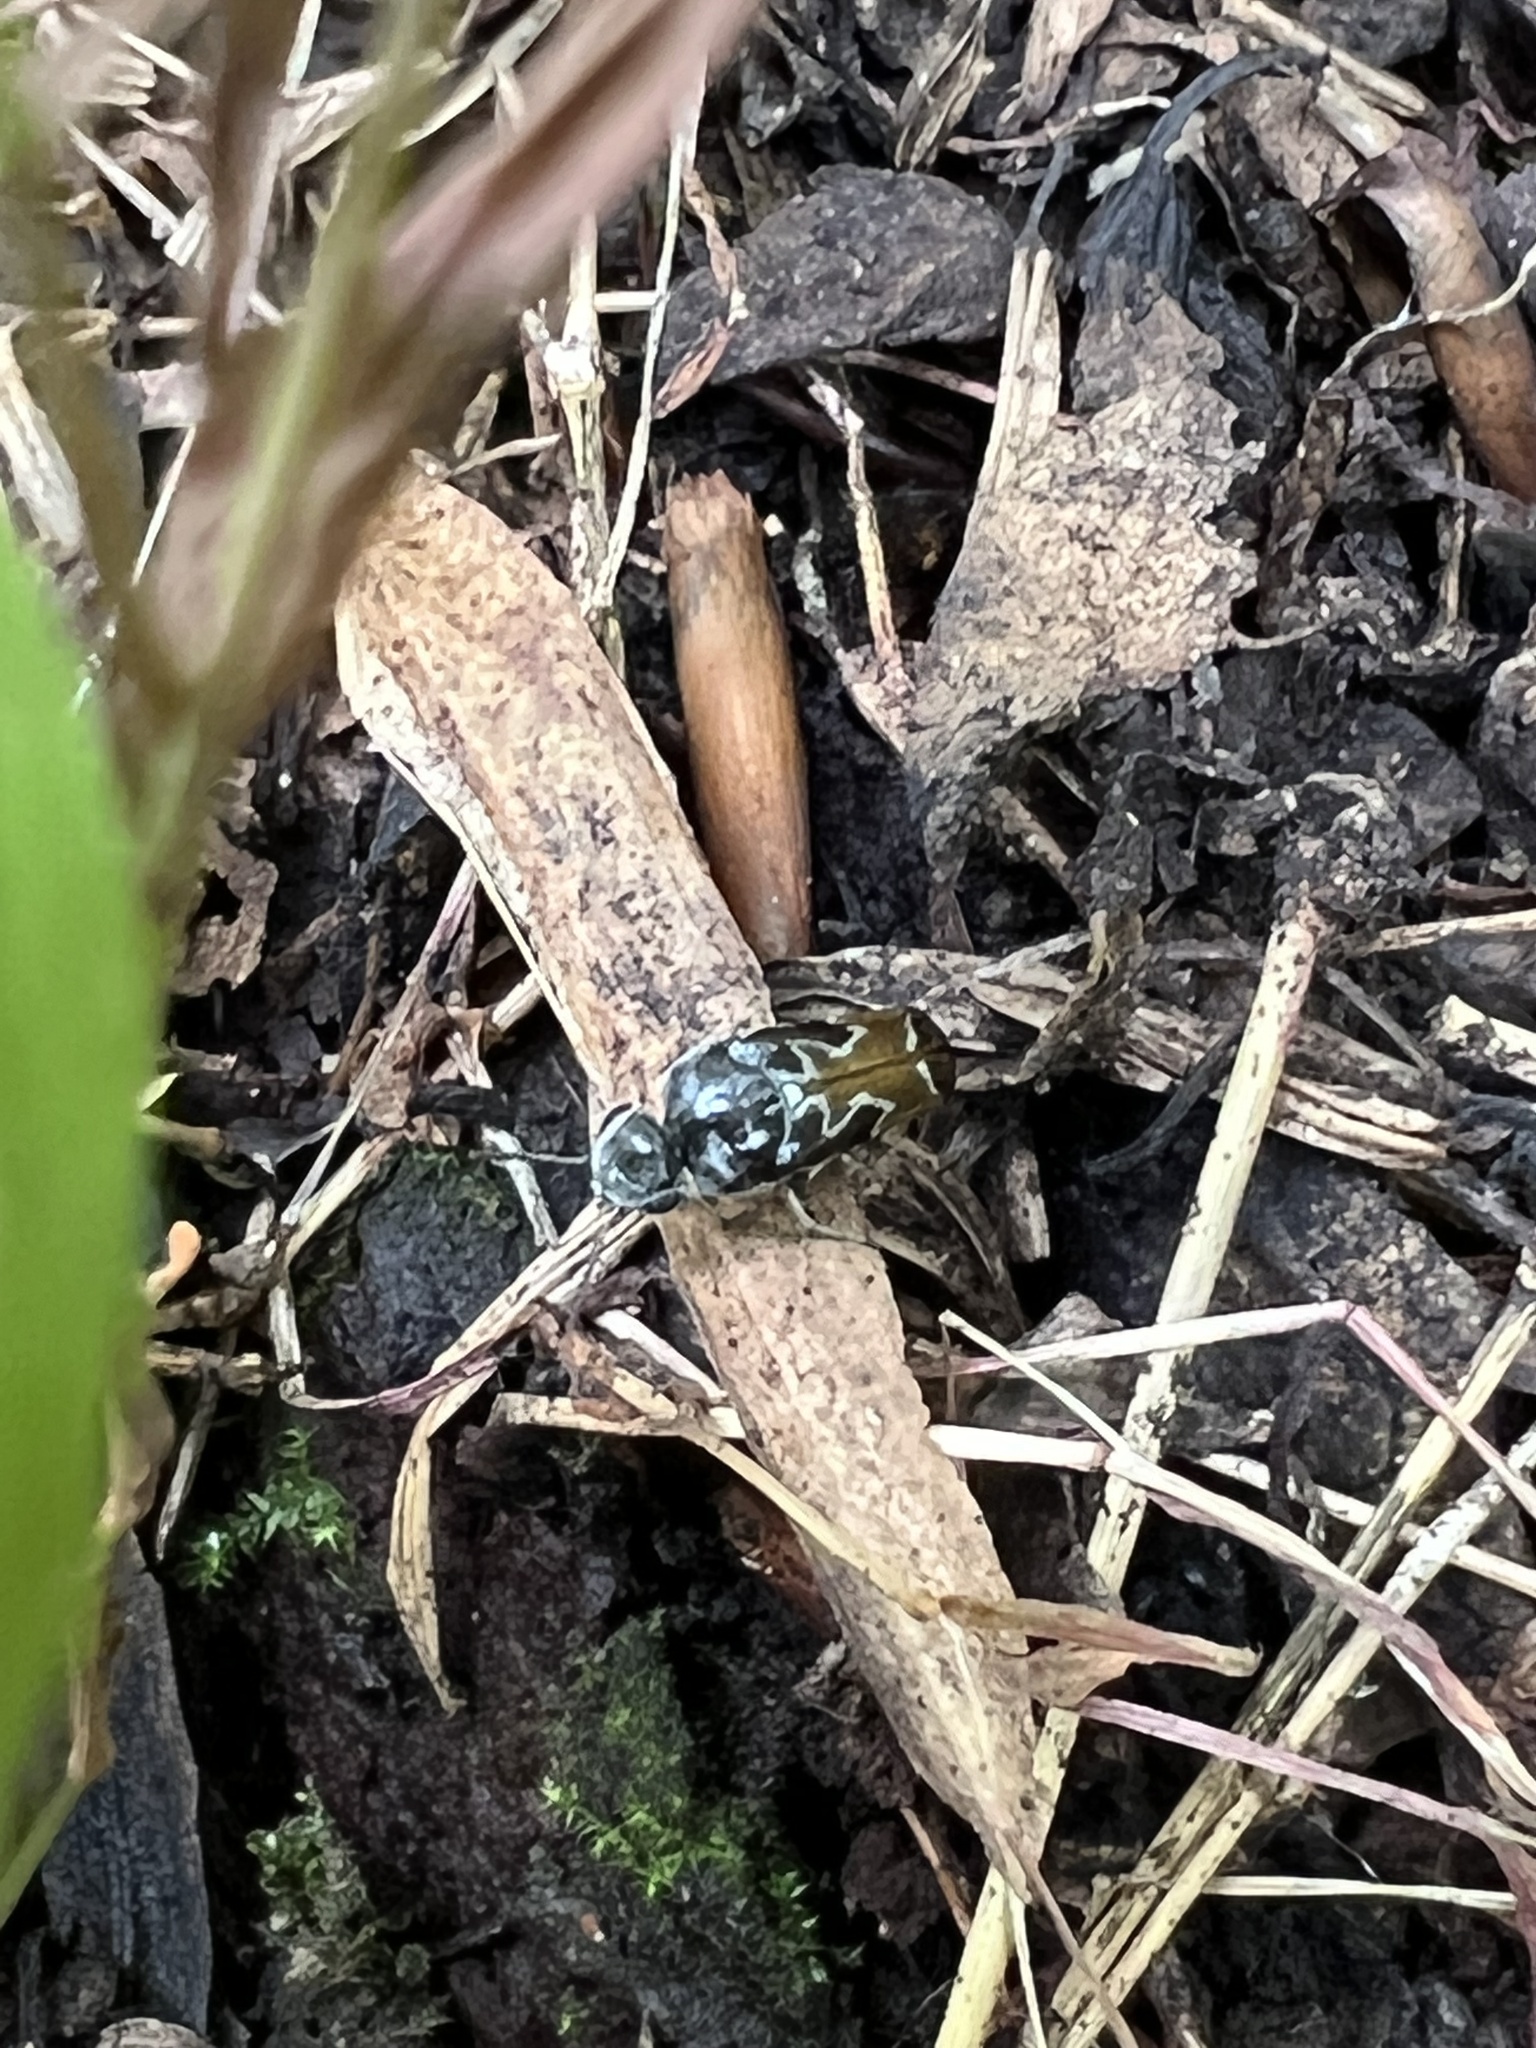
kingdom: Animalia
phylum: Arthropoda
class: Insecta
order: Coleoptera
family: Mordellidae
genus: Glipa
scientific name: Glipa hilaris
